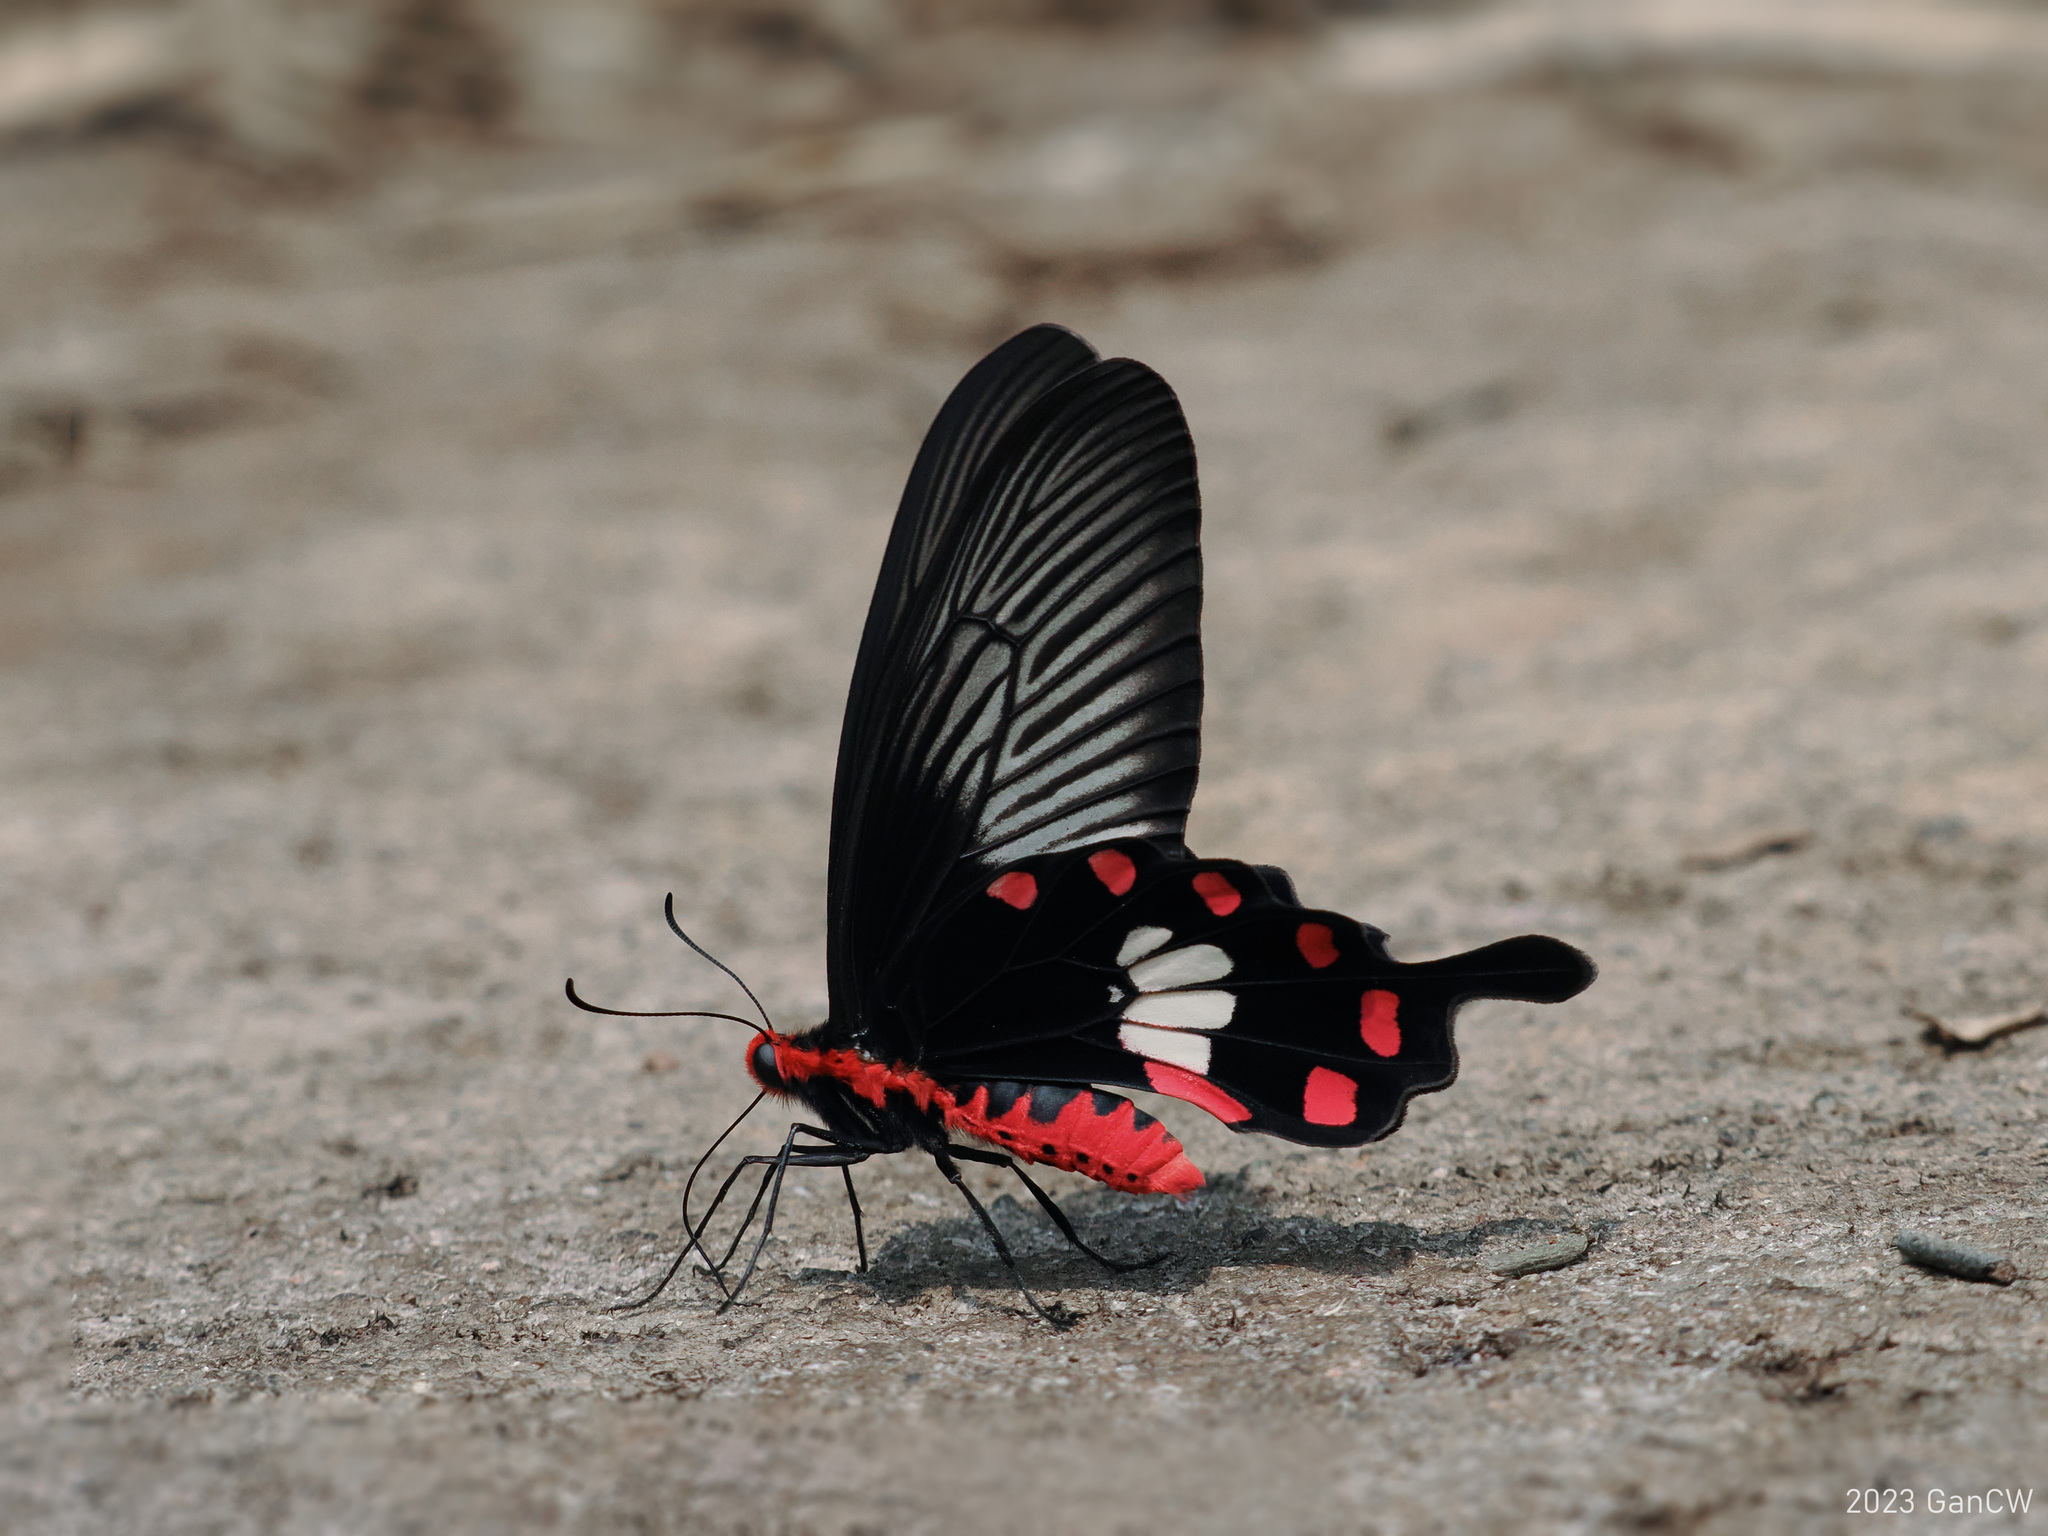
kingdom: Animalia
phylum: Arthropoda
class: Insecta
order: Lepidoptera
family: Papilionidae
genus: Pachliopta
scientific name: Pachliopta aristolochiae
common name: Common rose
